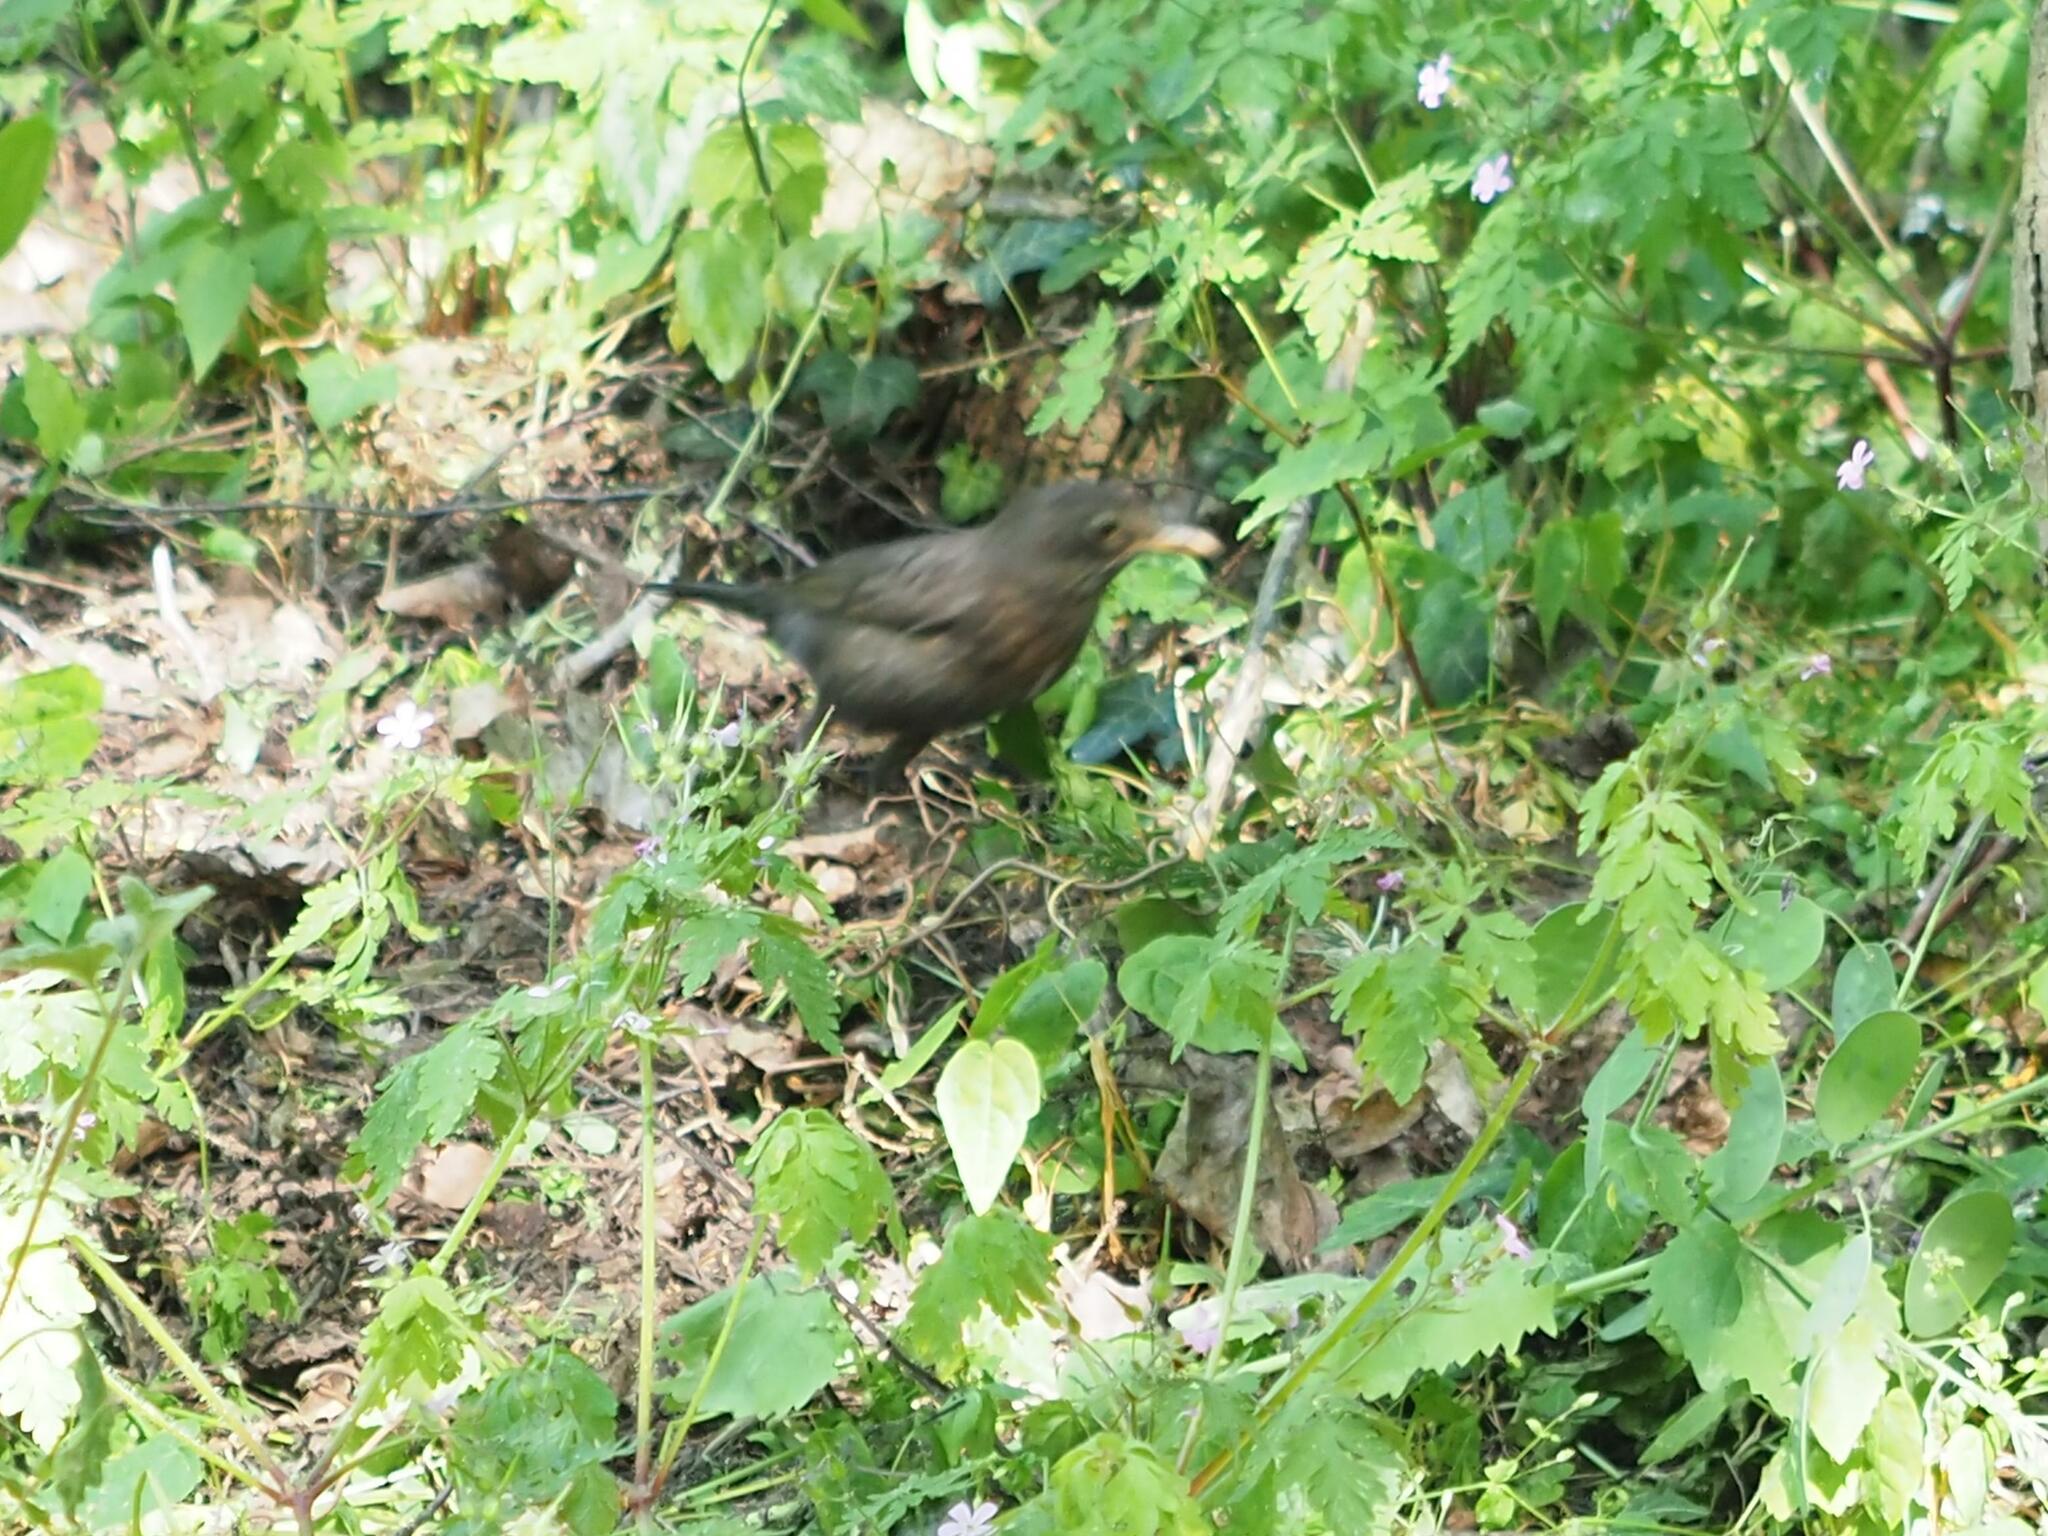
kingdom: Animalia
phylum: Chordata
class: Aves
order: Passeriformes
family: Turdidae
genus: Turdus
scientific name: Turdus merula
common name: Common blackbird
